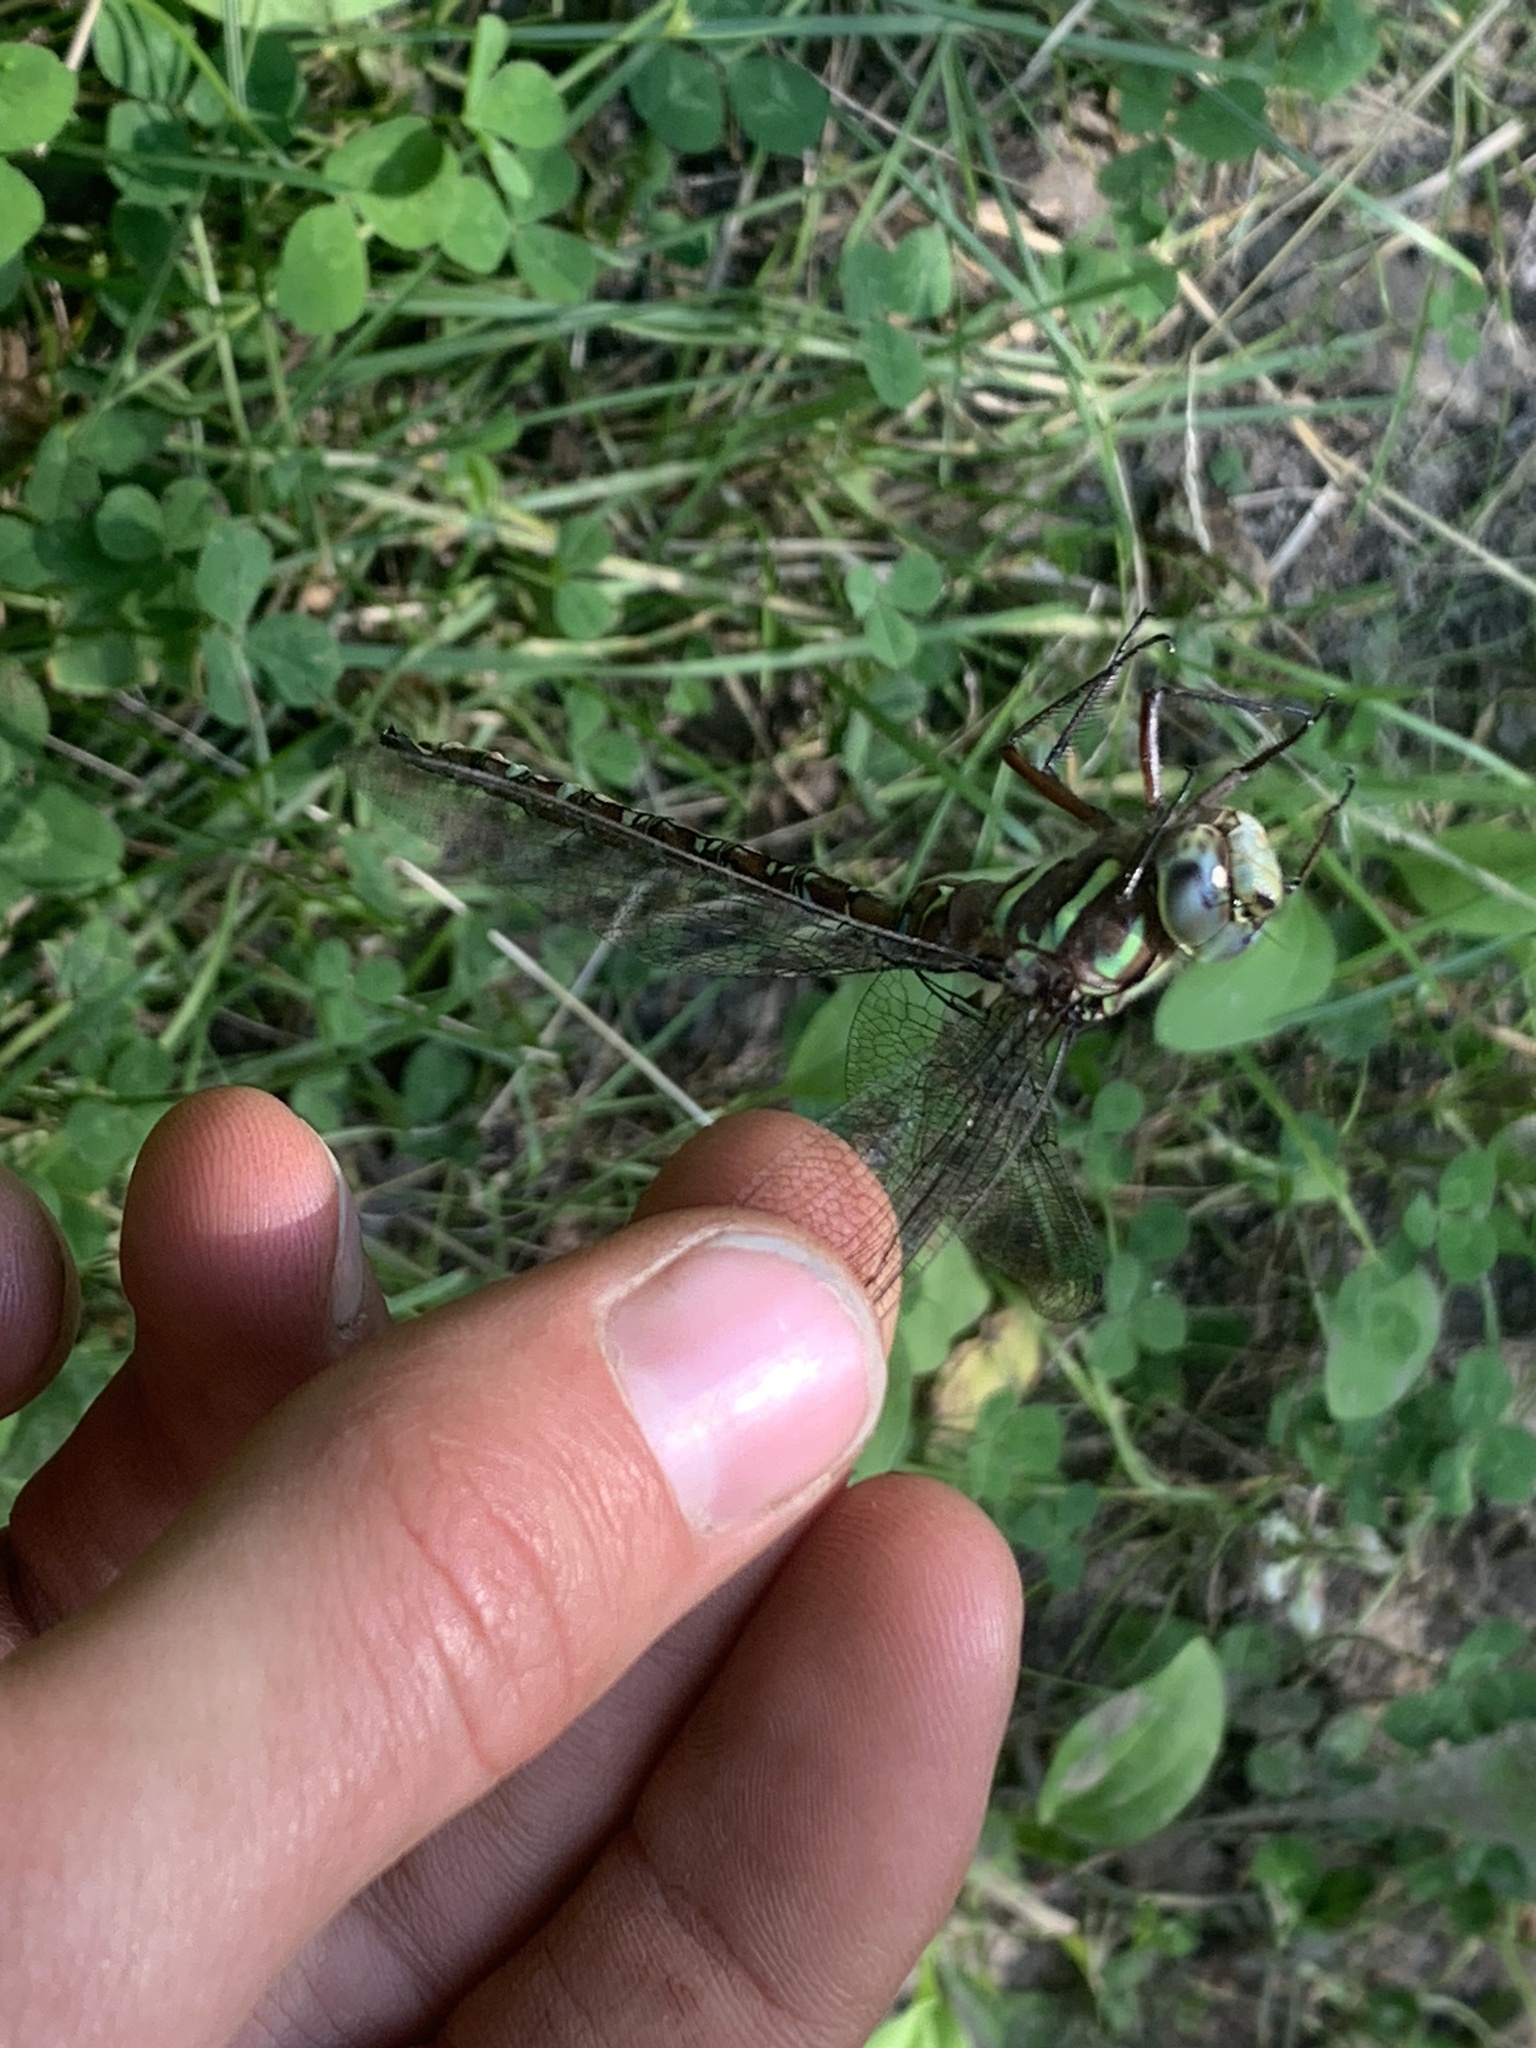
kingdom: Animalia
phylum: Arthropoda
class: Insecta
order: Odonata
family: Aeshnidae
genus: Aeshna
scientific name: Aeshna umbrosa
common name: Shadow darner
